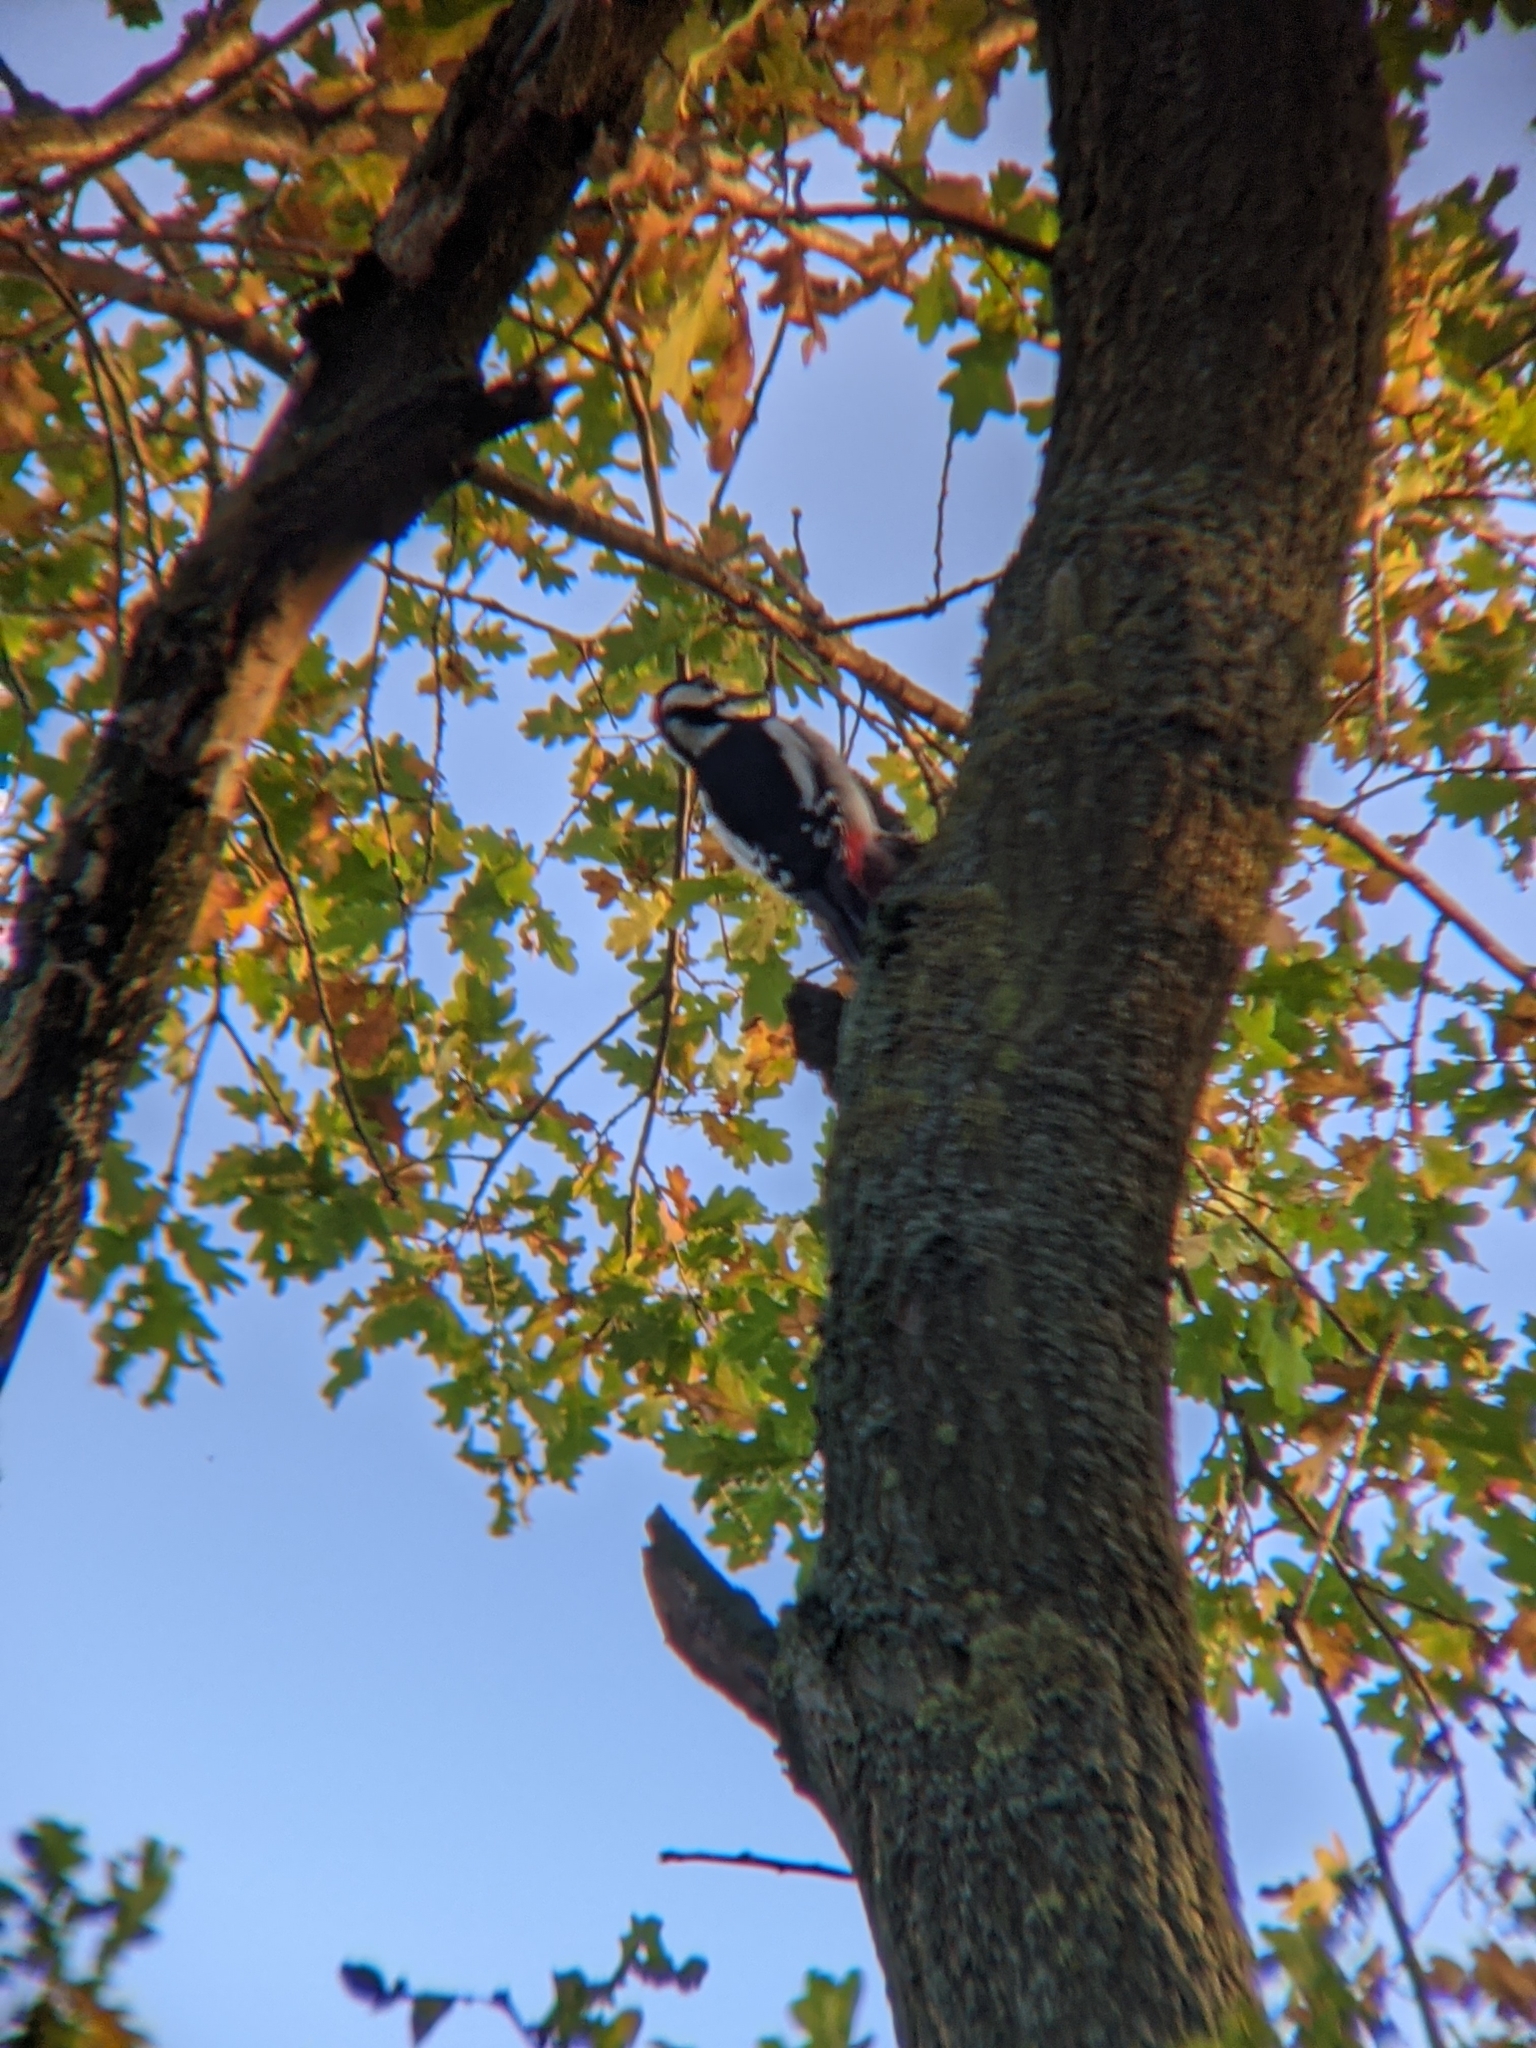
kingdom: Animalia
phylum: Chordata
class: Aves
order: Piciformes
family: Picidae
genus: Dendrocopos
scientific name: Dendrocopos major
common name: Great spotted woodpecker
